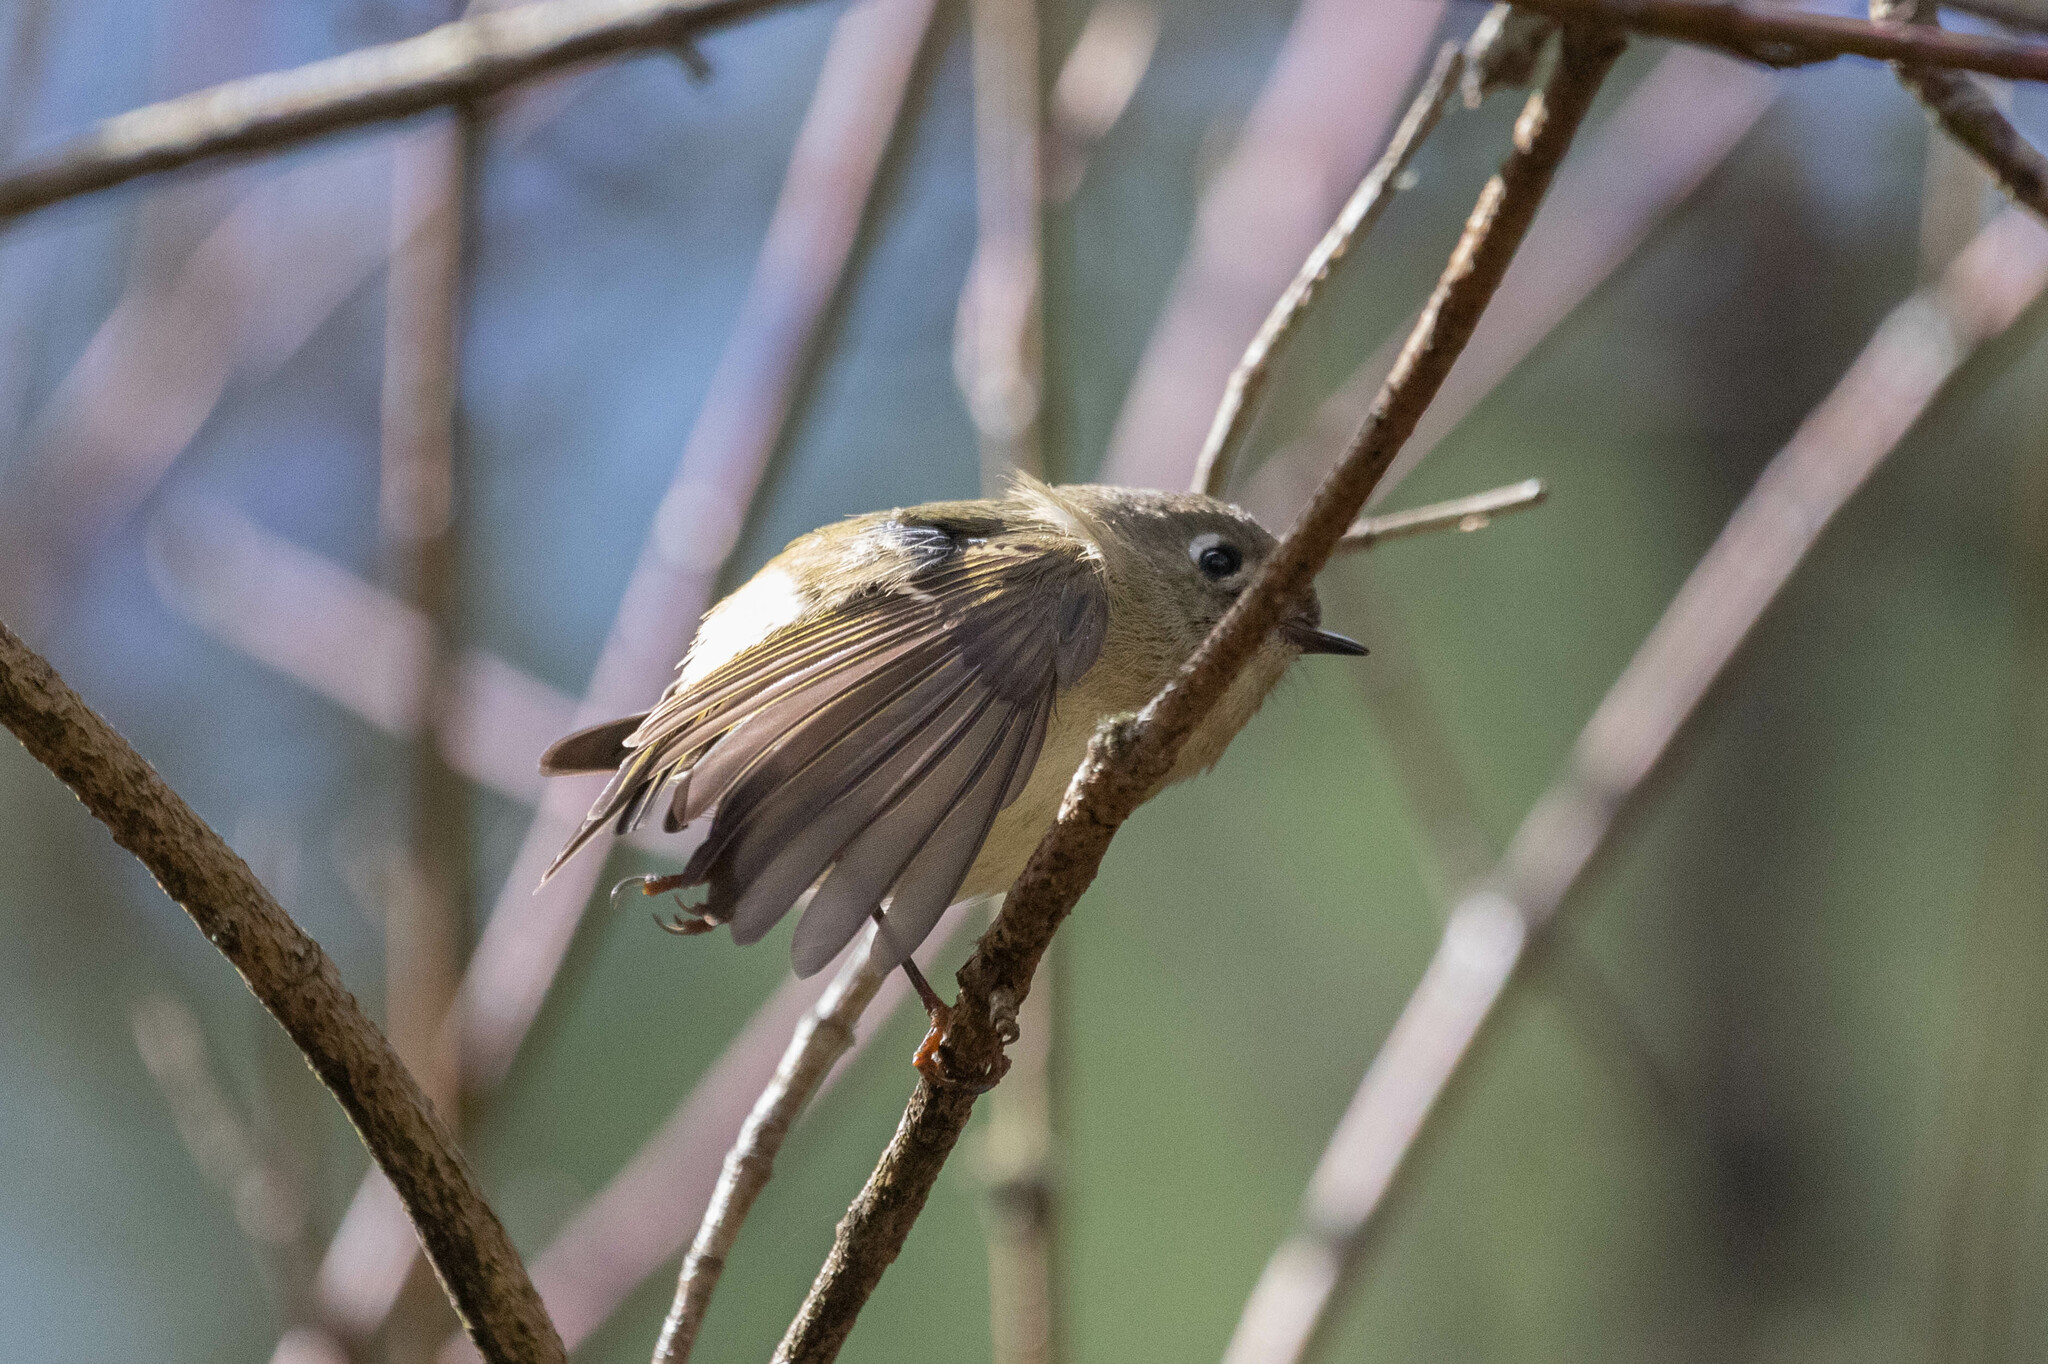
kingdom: Animalia
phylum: Chordata
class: Aves
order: Passeriformes
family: Regulidae
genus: Regulus
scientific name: Regulus calendula
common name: Ruby-crowned kinglet
